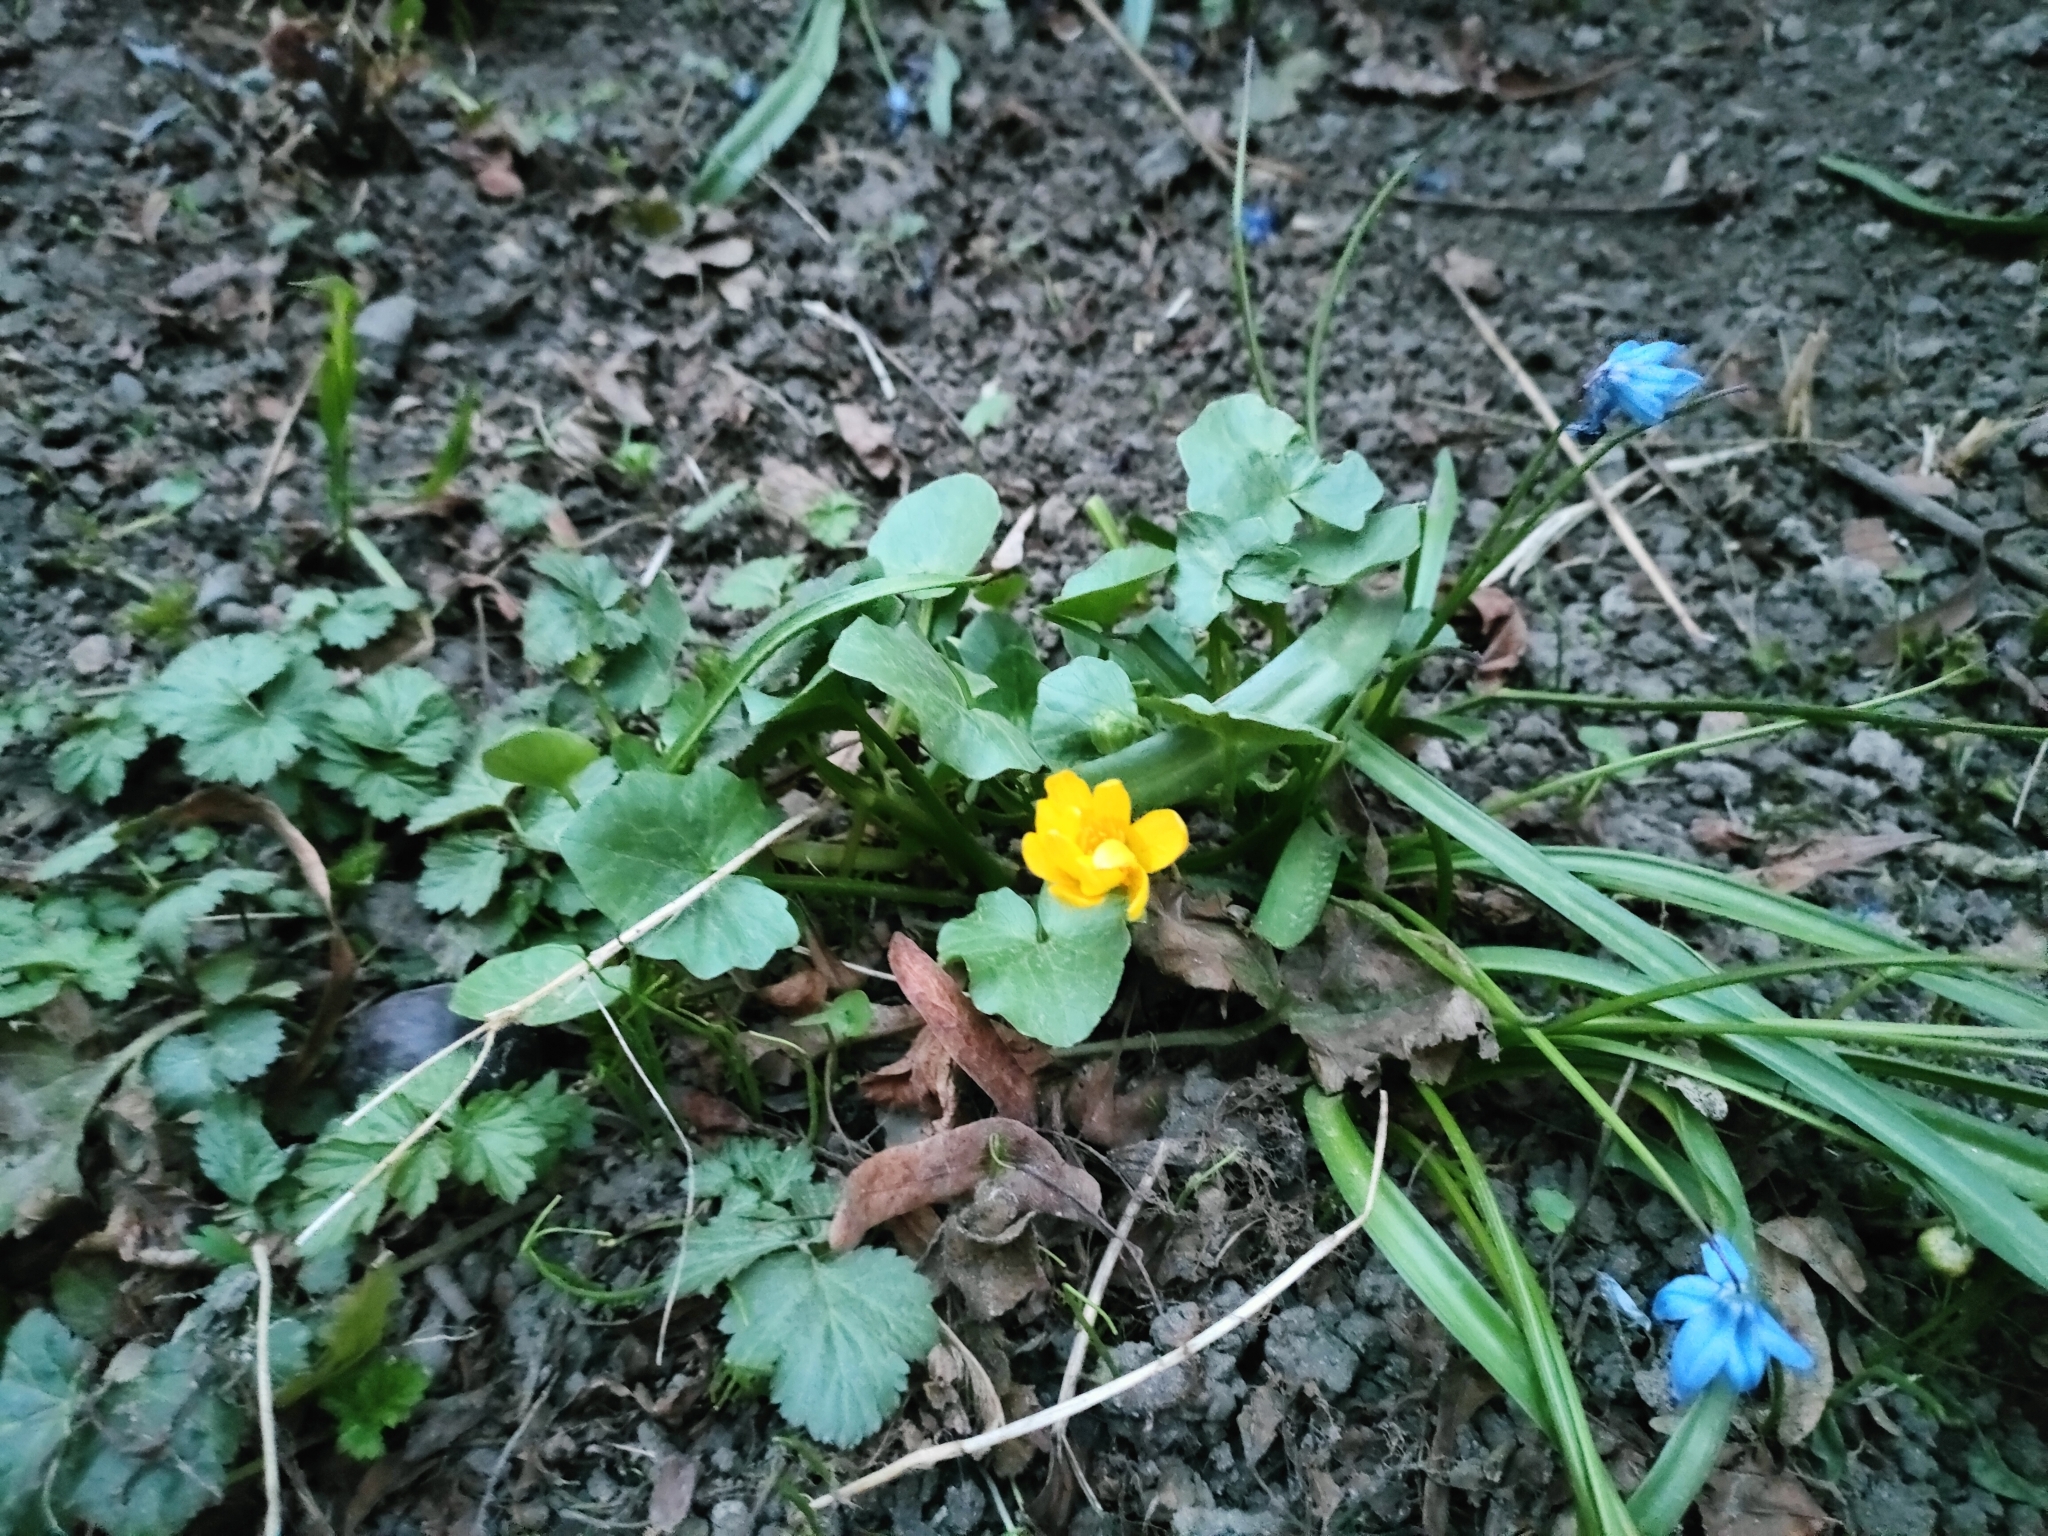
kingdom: Plantae
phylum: Tracheophyta
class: Magnoliopsida
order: Ranunculales
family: Ranunculaceae
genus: Ficaria
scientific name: Ficaria verna
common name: Lesser celandine
